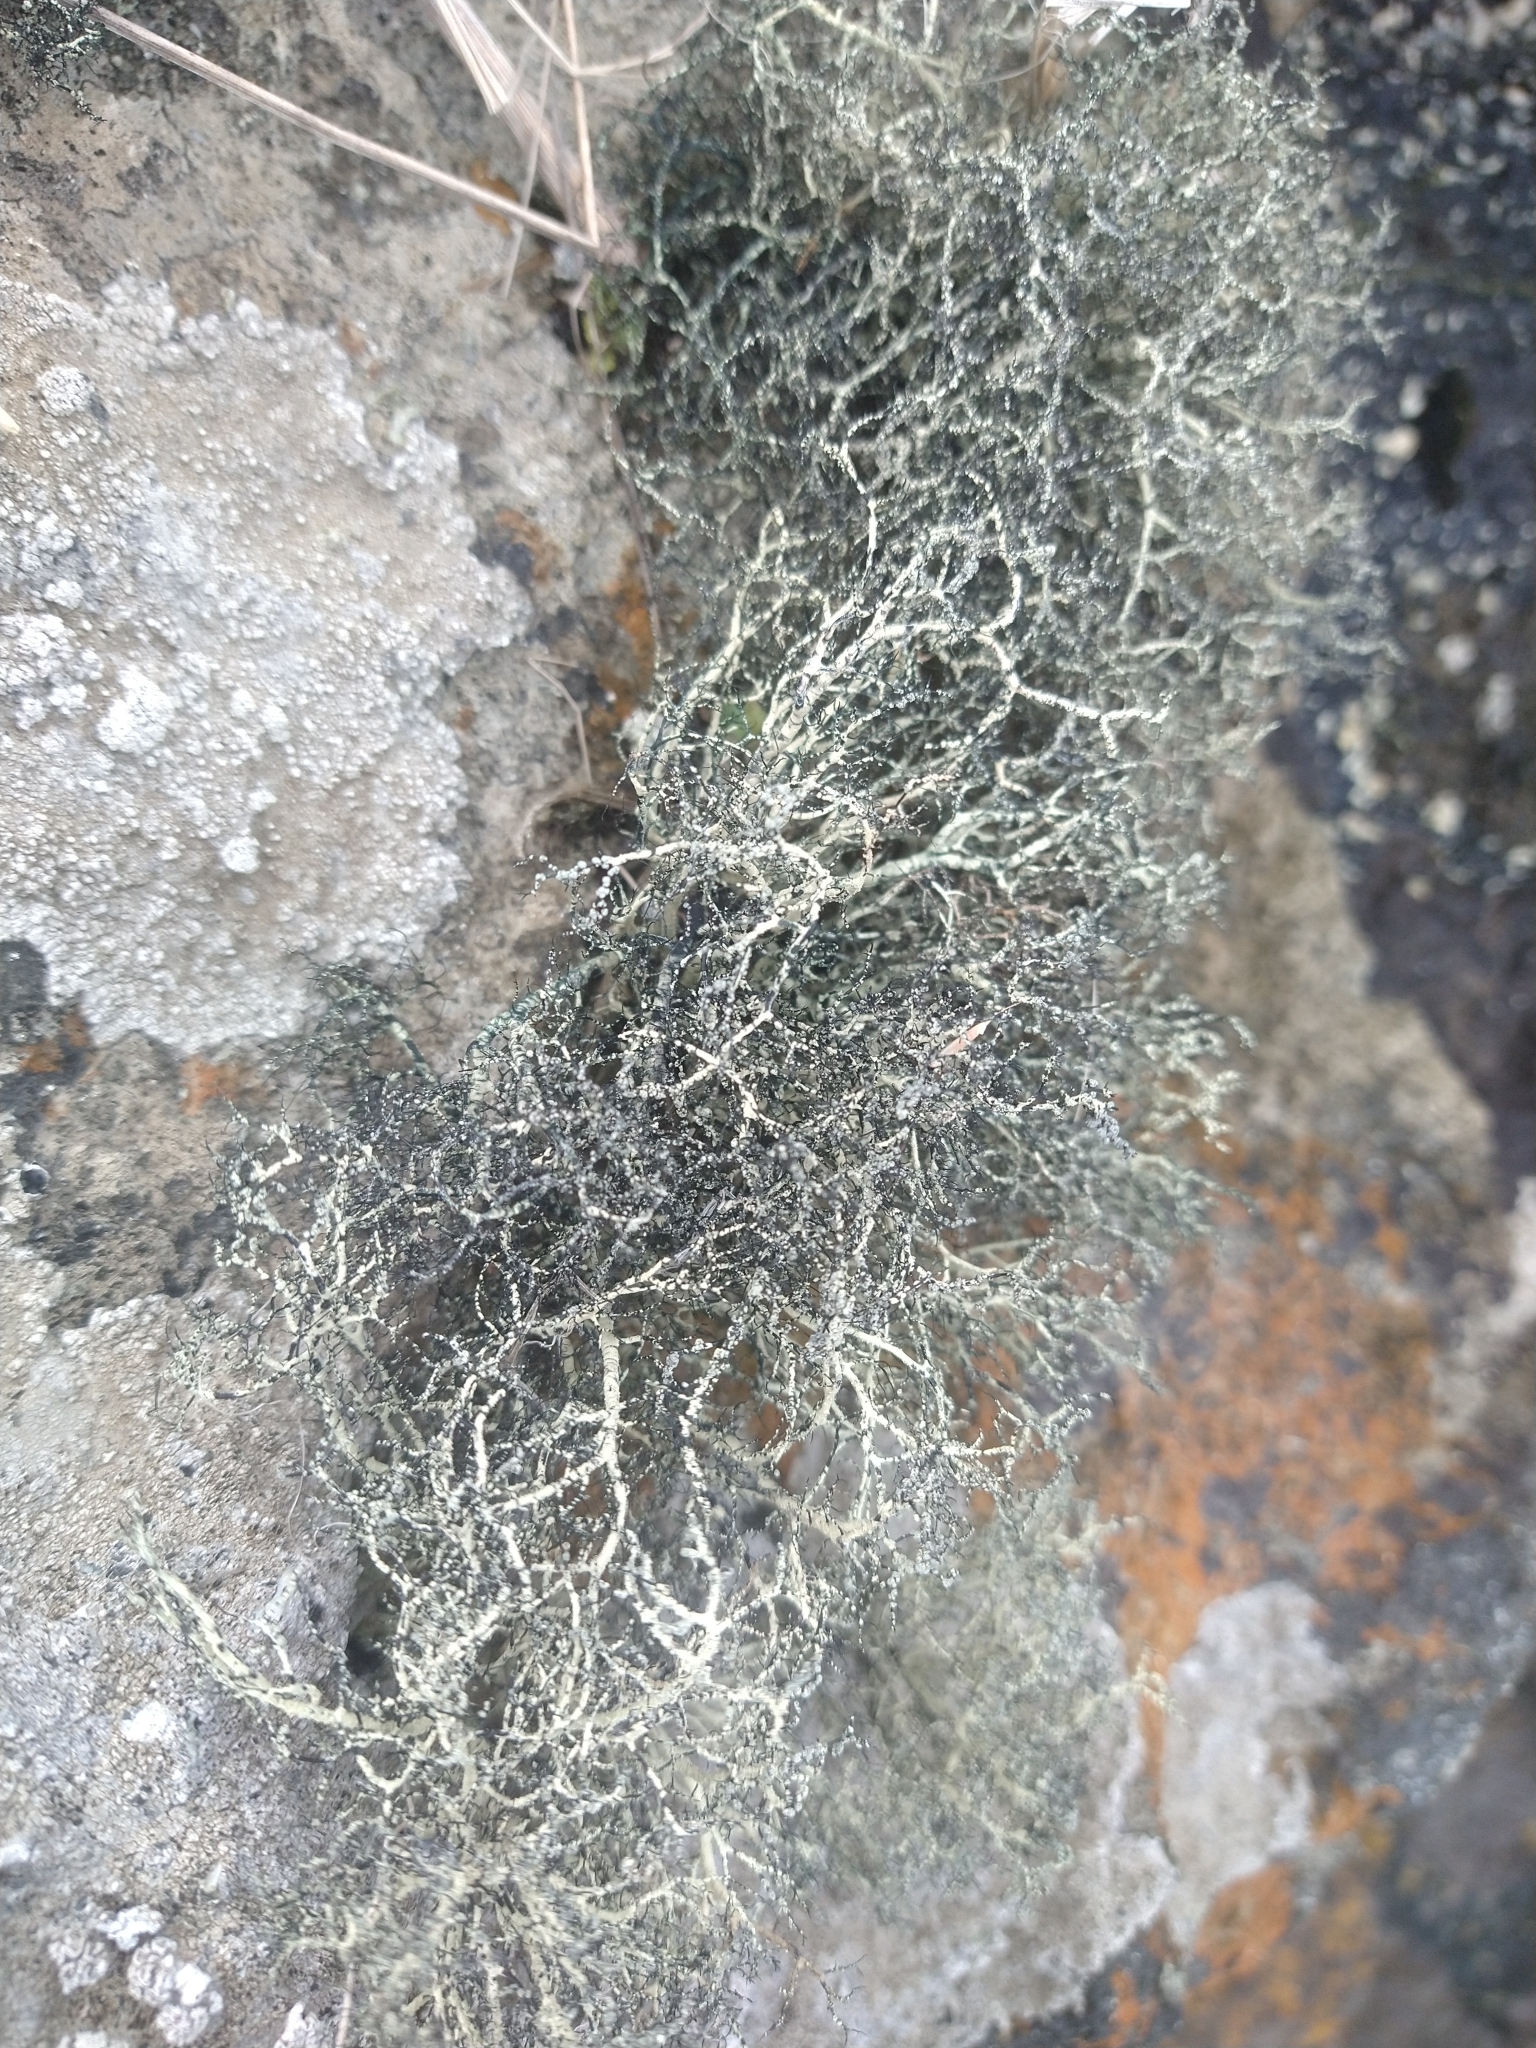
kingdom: Fungi
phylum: Ascomycota
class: Lecanoromycetes
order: Lecanorales
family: Parmeliaceae
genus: Usnea
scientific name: Usnea trachycarpa
